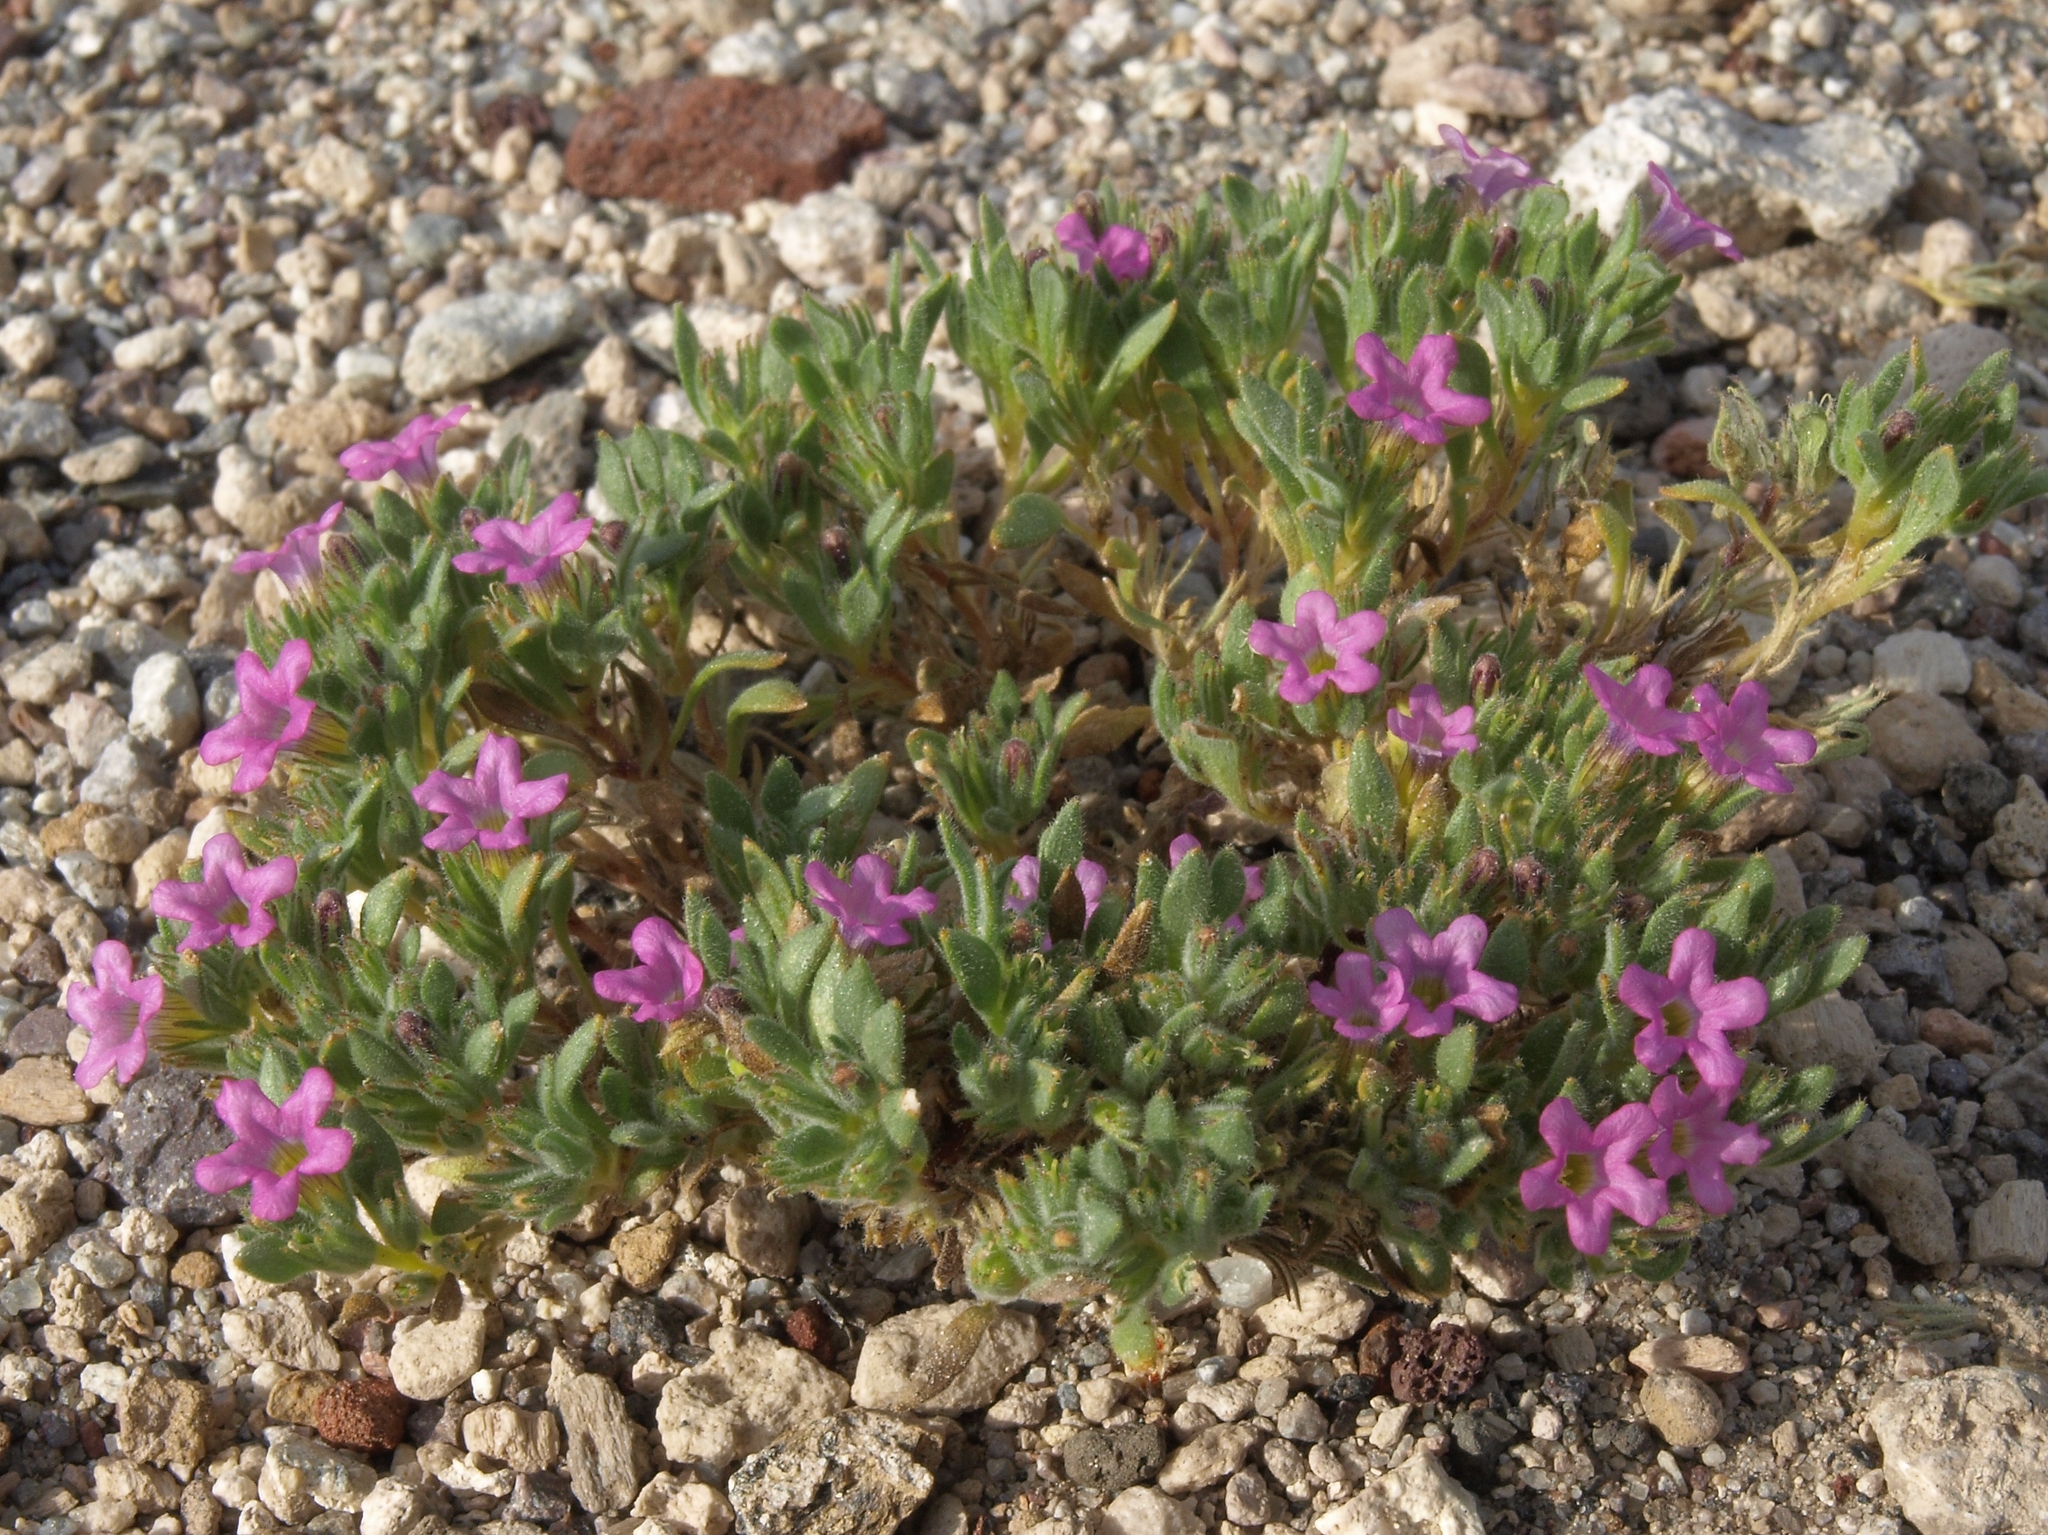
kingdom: Plantae
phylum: Tracheophyta
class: Magnoliopsida
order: Boraginales
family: Namaceae
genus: Nama
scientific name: Nama demissa
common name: Leafy nama
